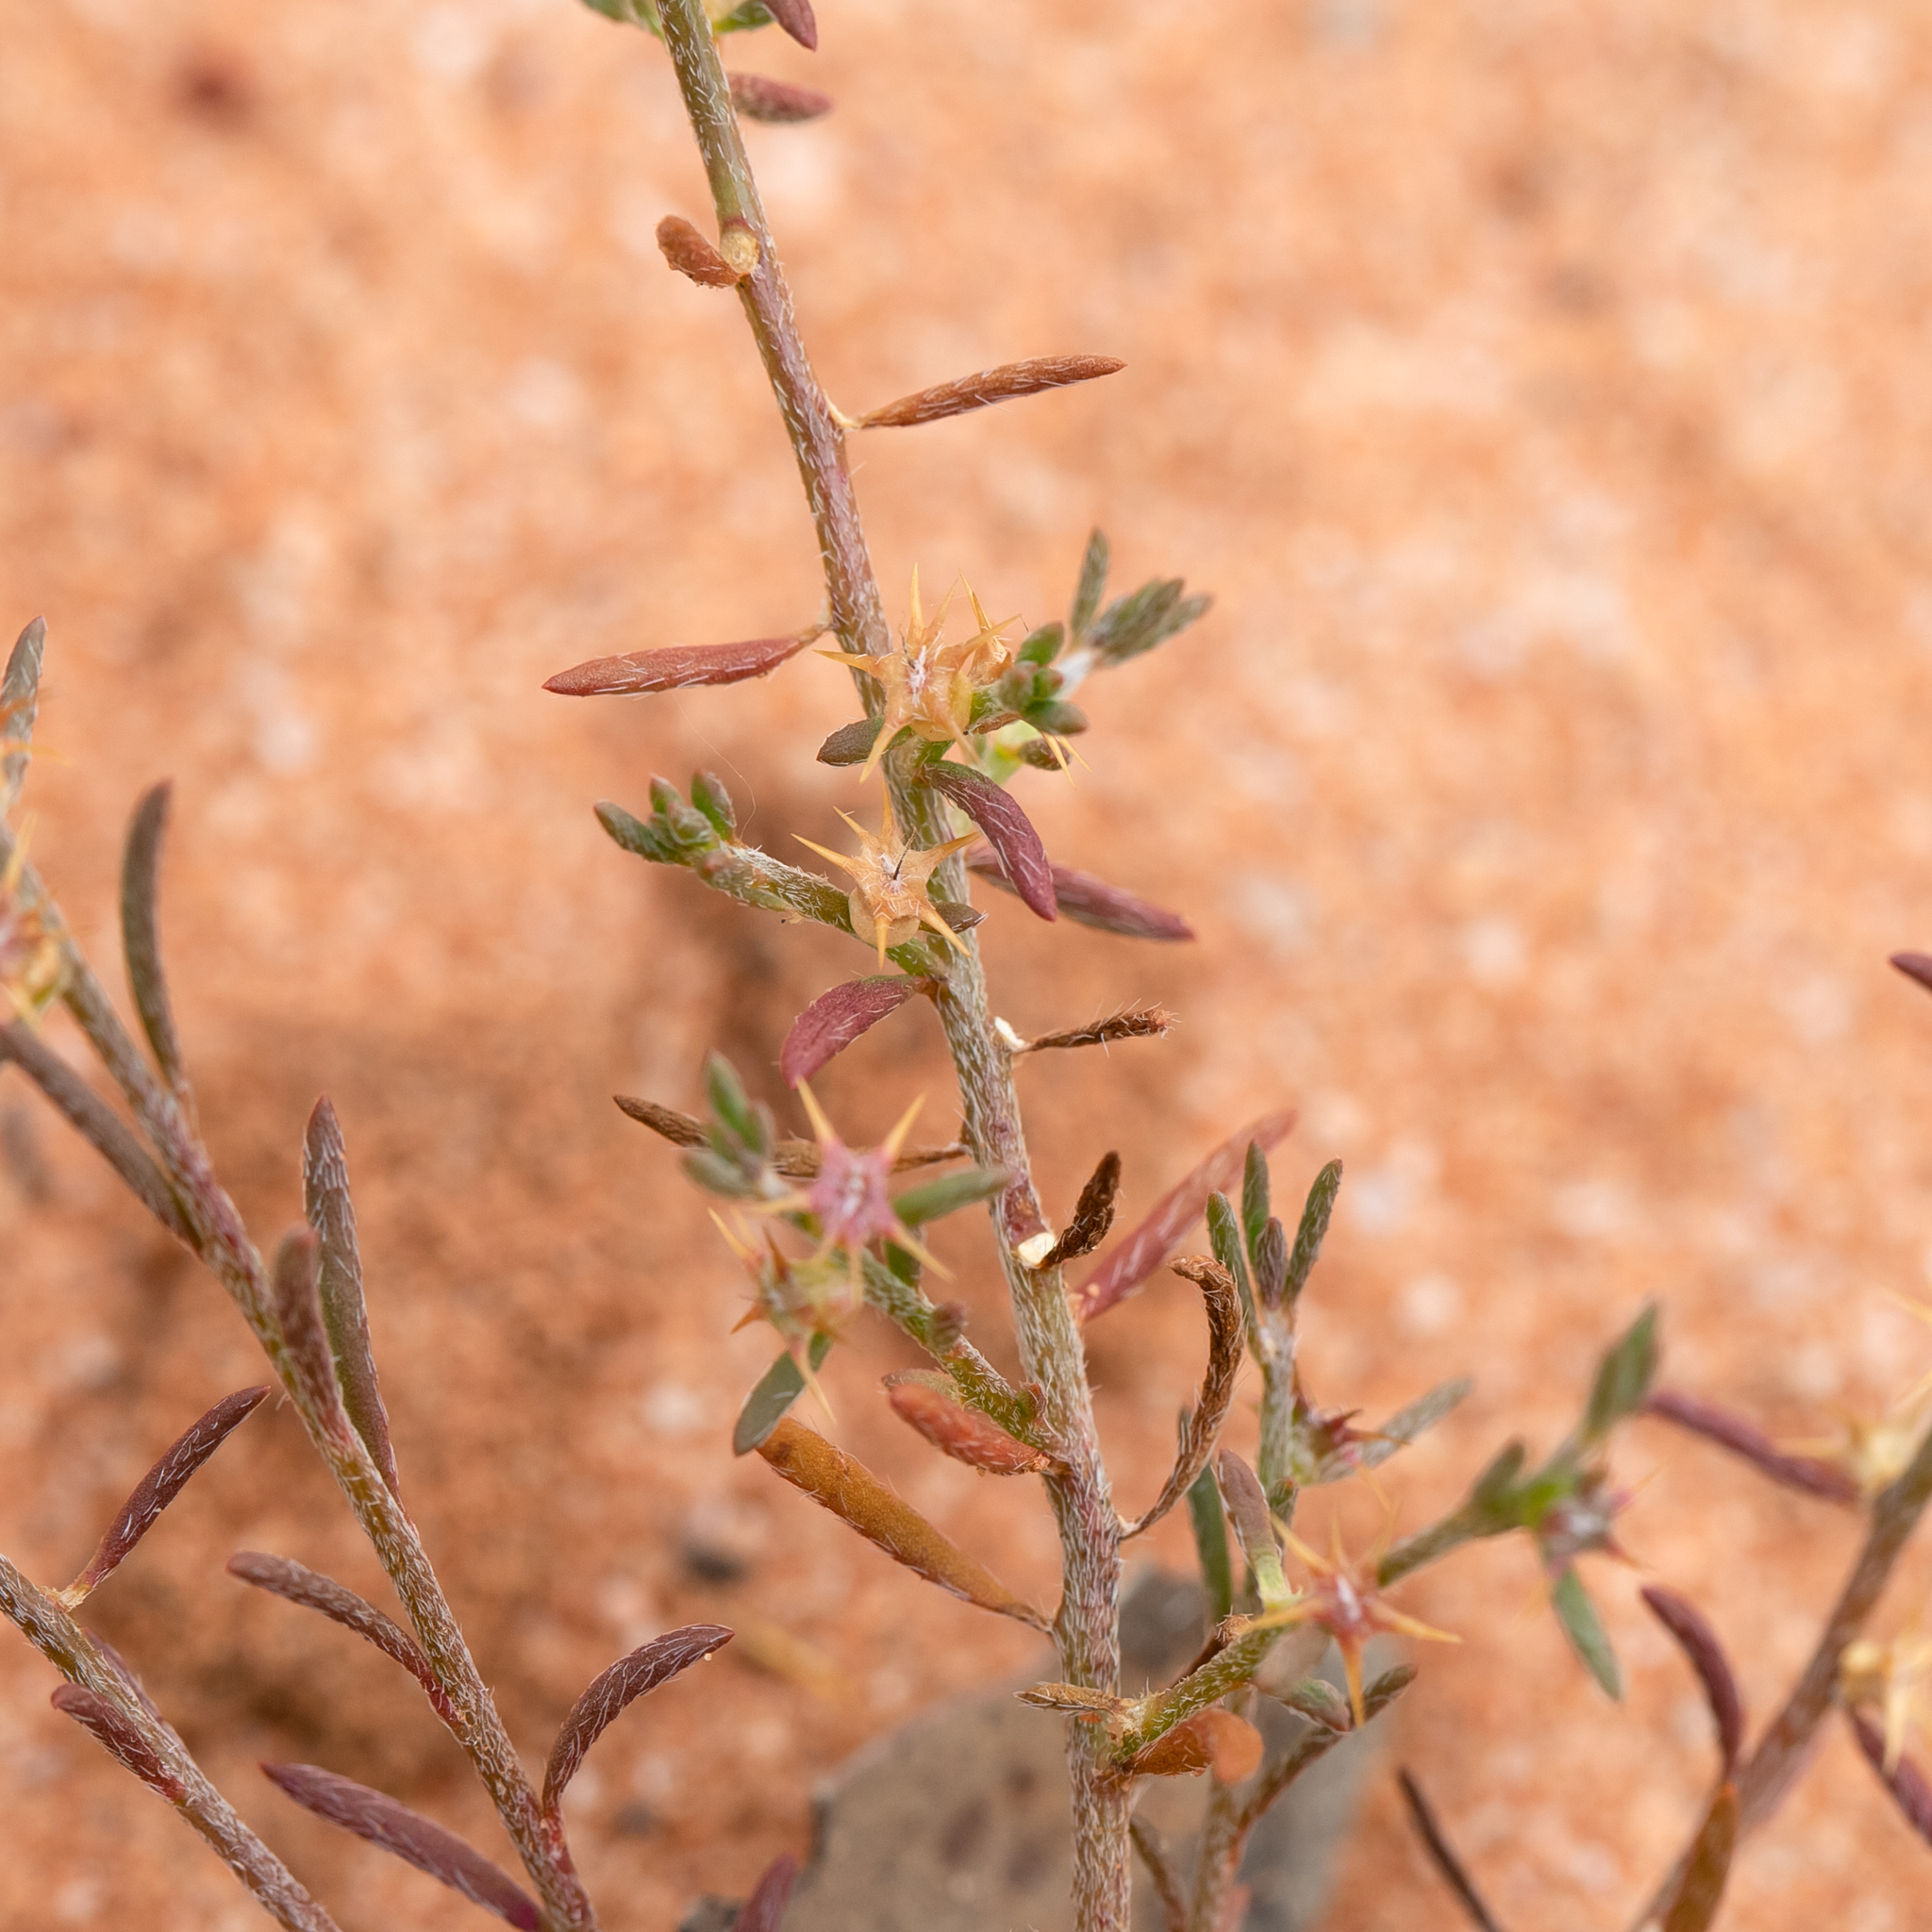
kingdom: Plantae
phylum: Tracheophyta
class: Magnoliopsida
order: Caryophyllales
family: Amaranthaceae
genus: Sclerolaena
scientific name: Sclerolaena parviflora
